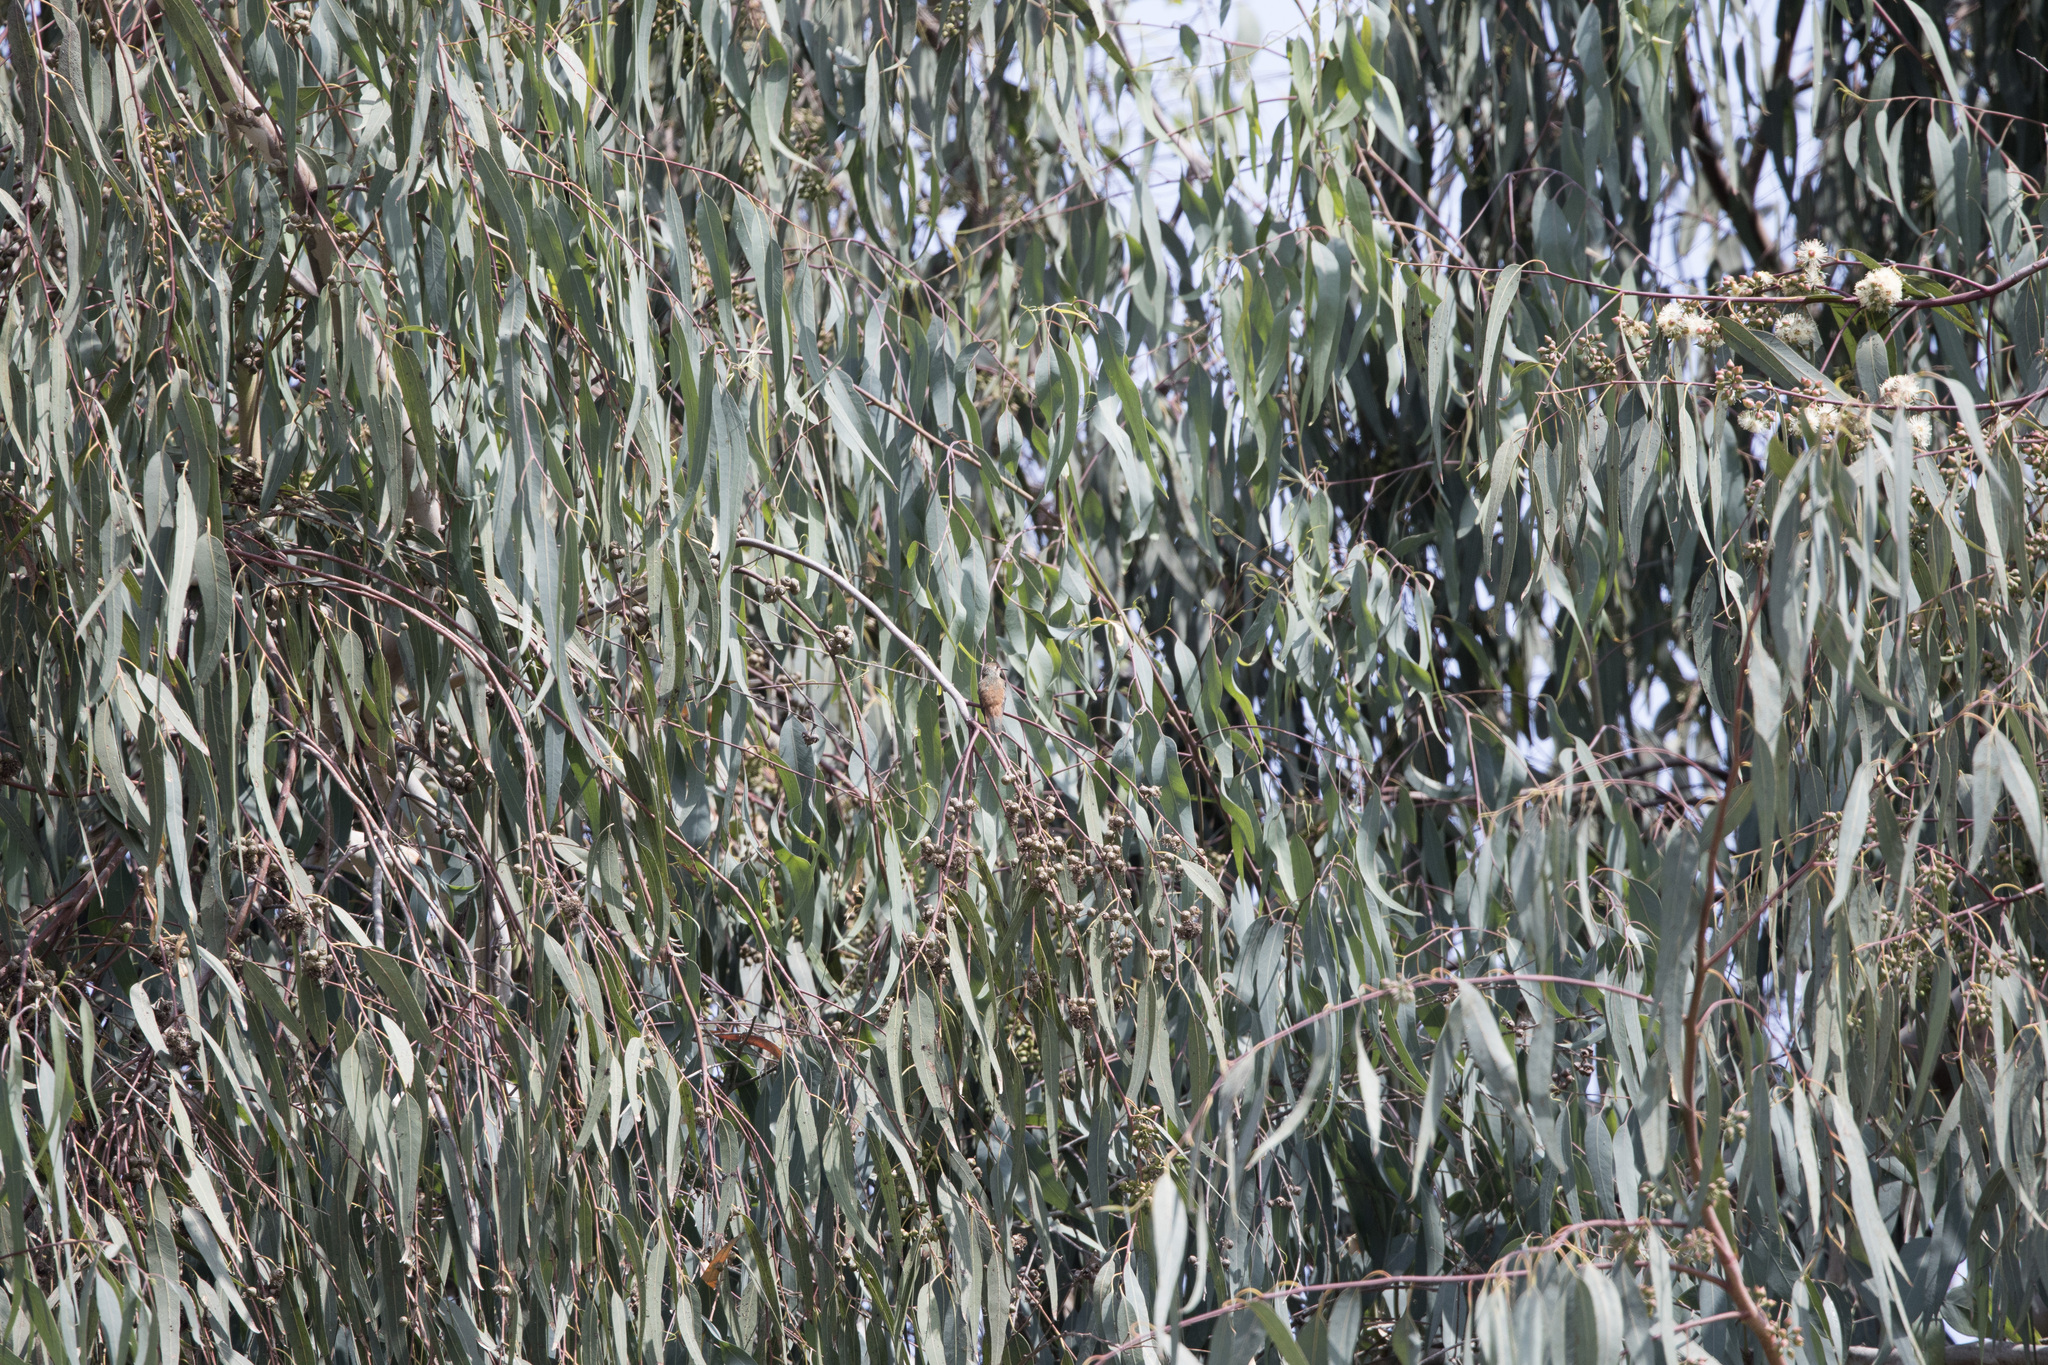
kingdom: Animalia
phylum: Chordata
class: Aves
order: Apodiformes
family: Trochilidae
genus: Amazilis
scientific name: Amazilis amazilia
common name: Amazilia hummingbird
